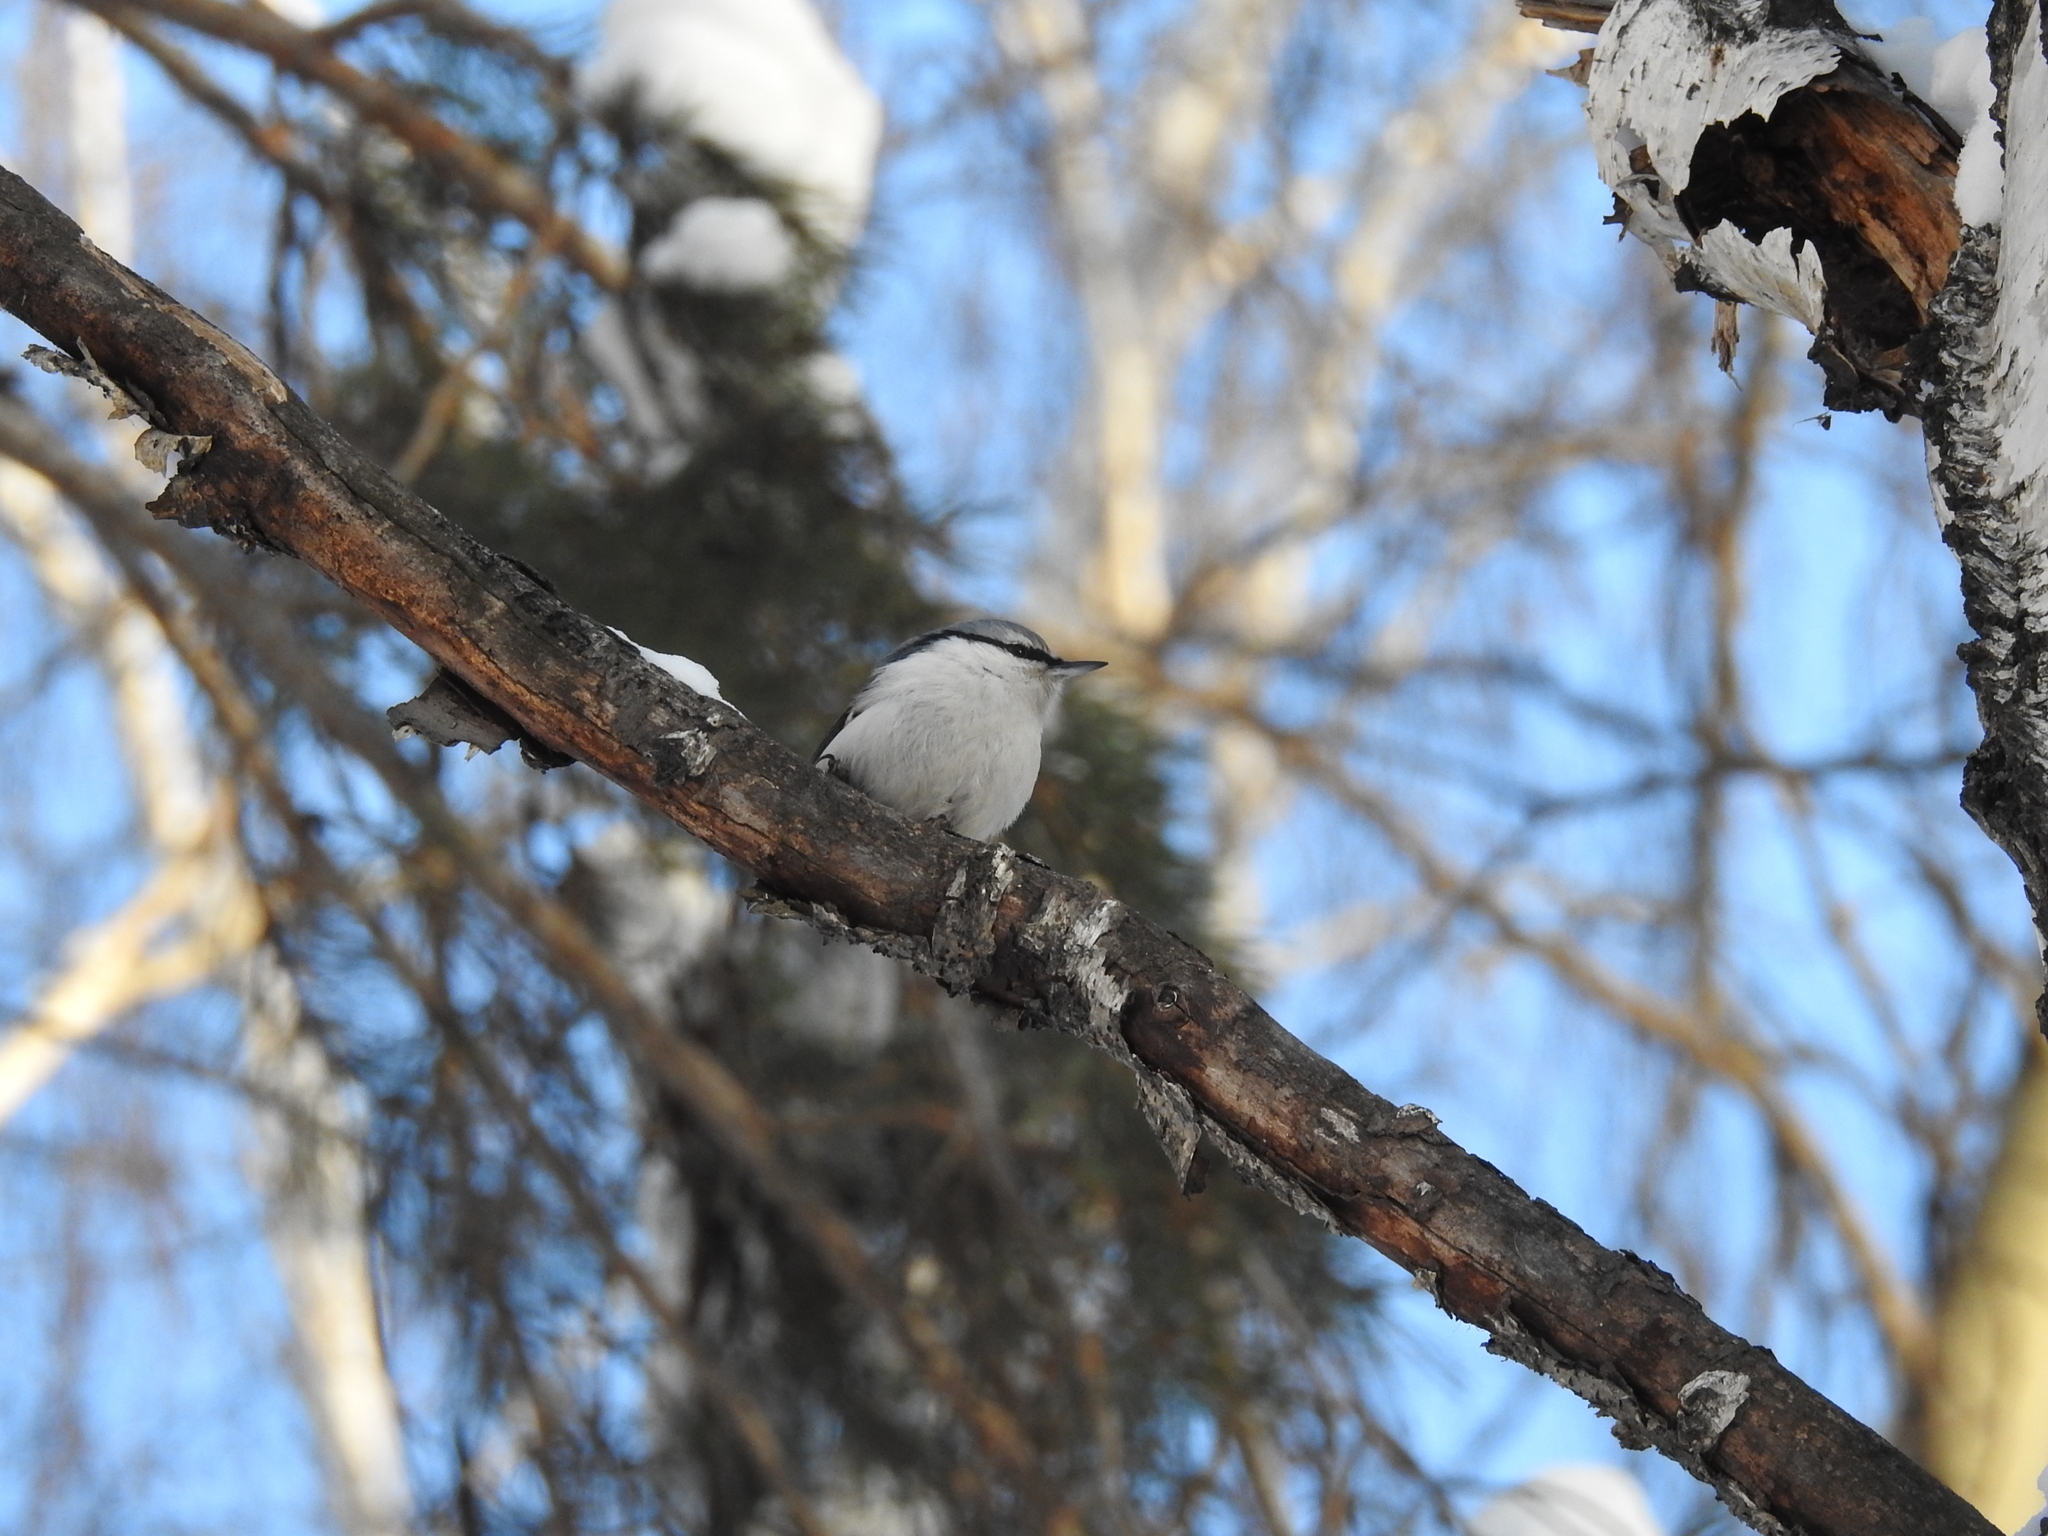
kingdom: Animalia
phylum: Chordata
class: Aves
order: Passeriformes
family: Sittidae
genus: Sitta
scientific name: Sitta europaea
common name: Eurasian nuthatch
